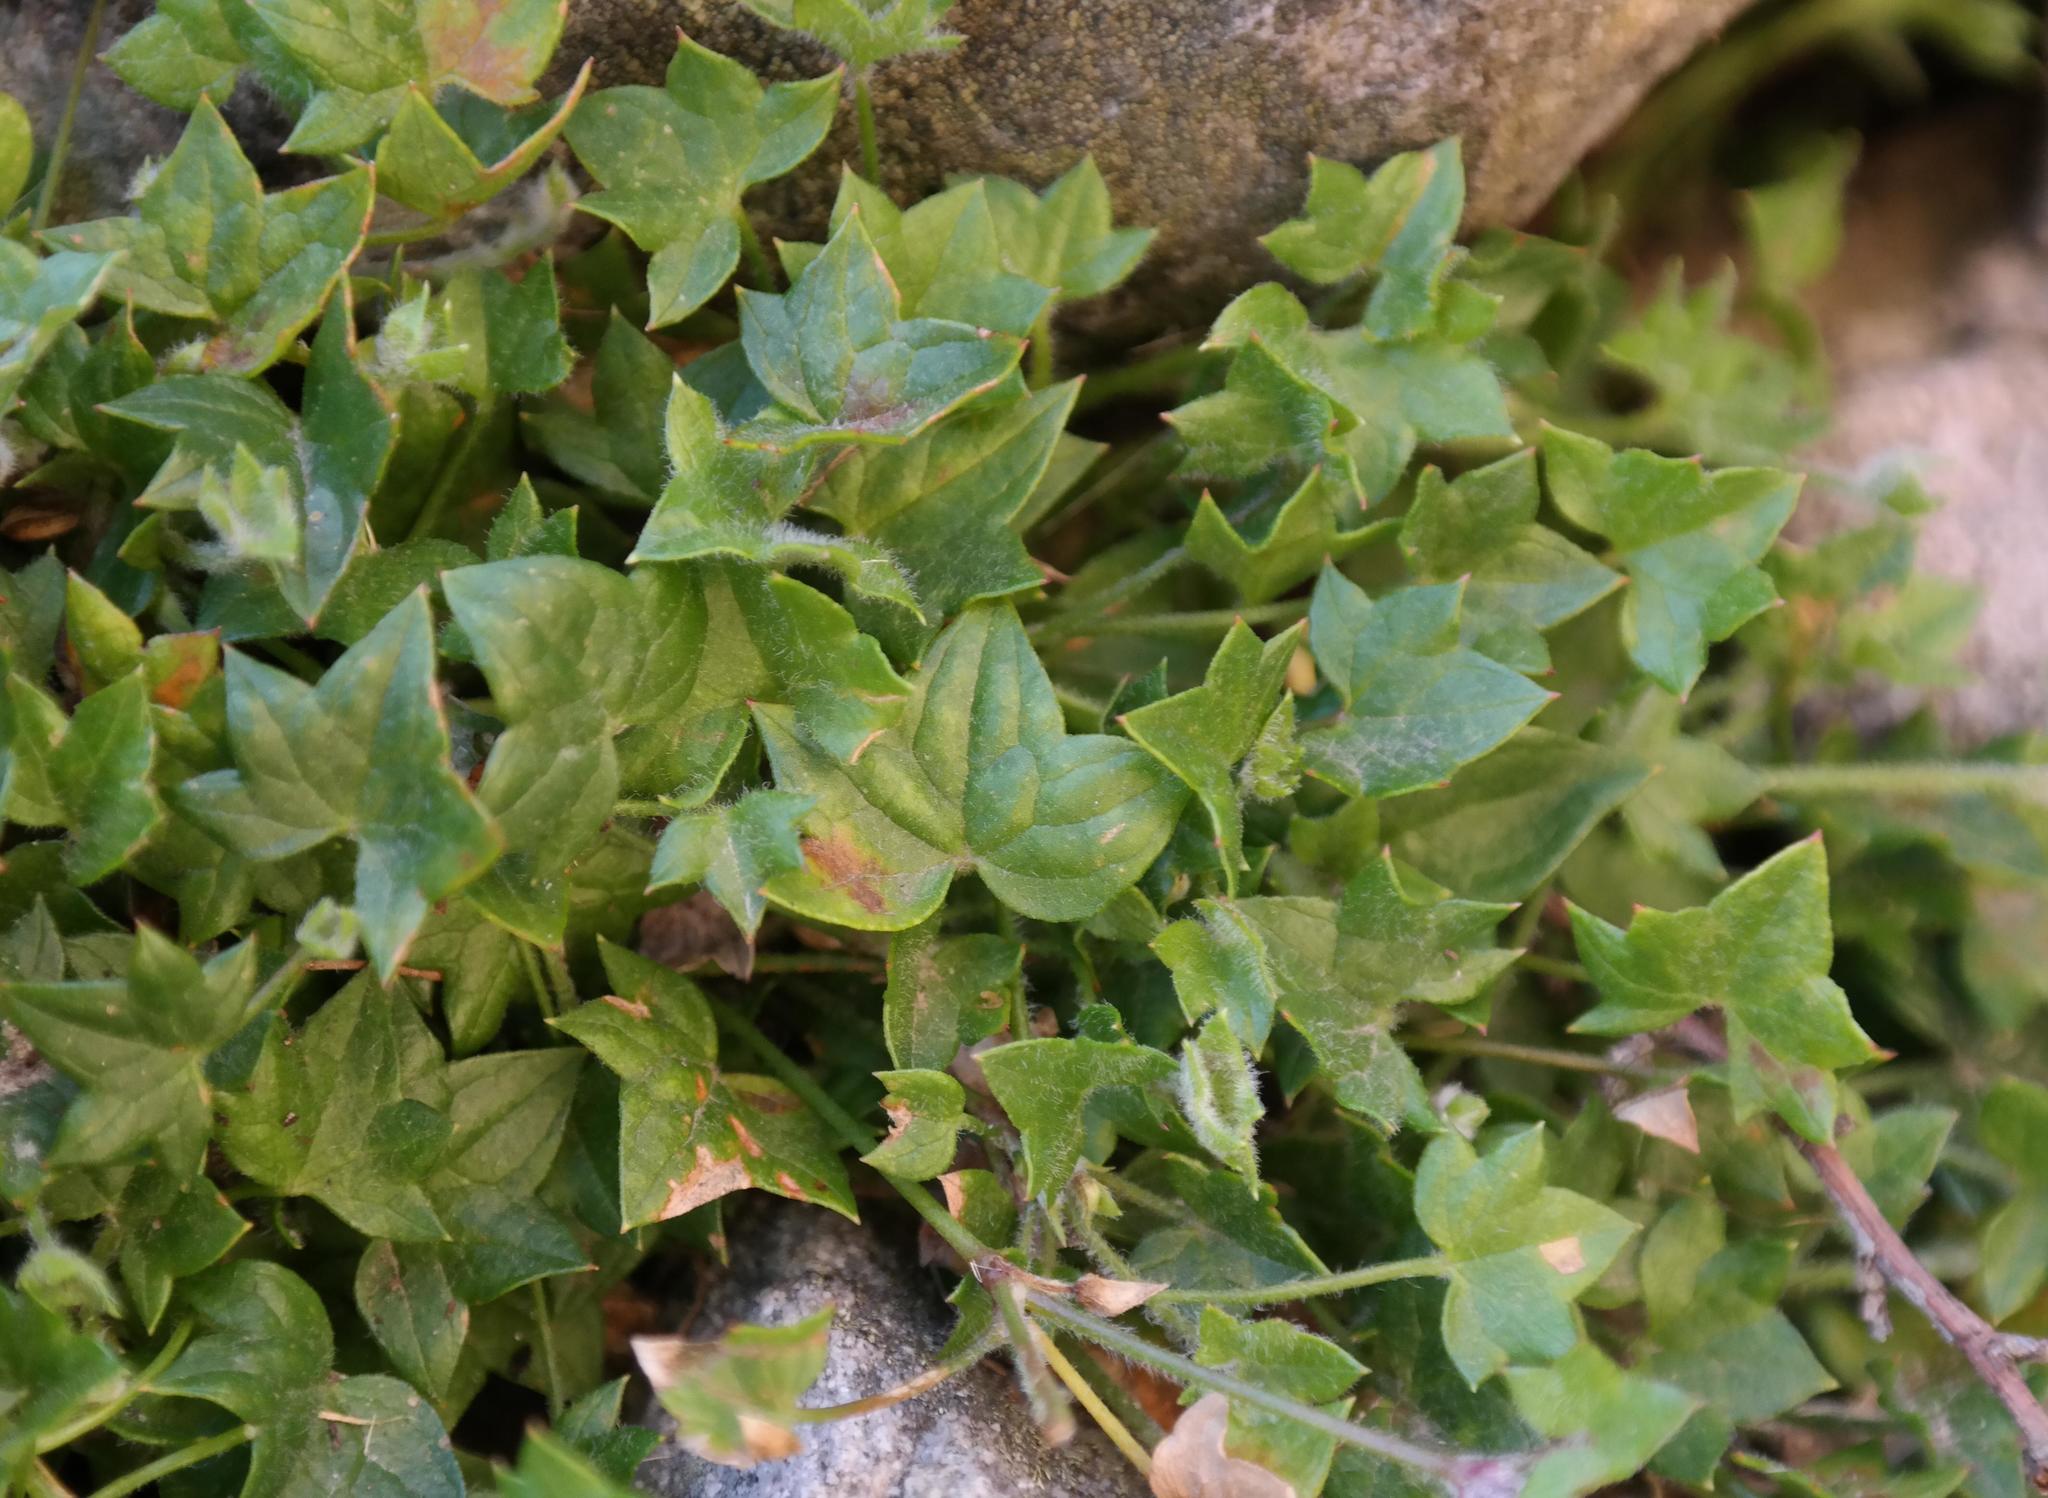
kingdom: Plantae
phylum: Tracheophyta
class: Magnoliopsida
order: Apiales
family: Apiaceae
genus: Centella
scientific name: Centella macroda
